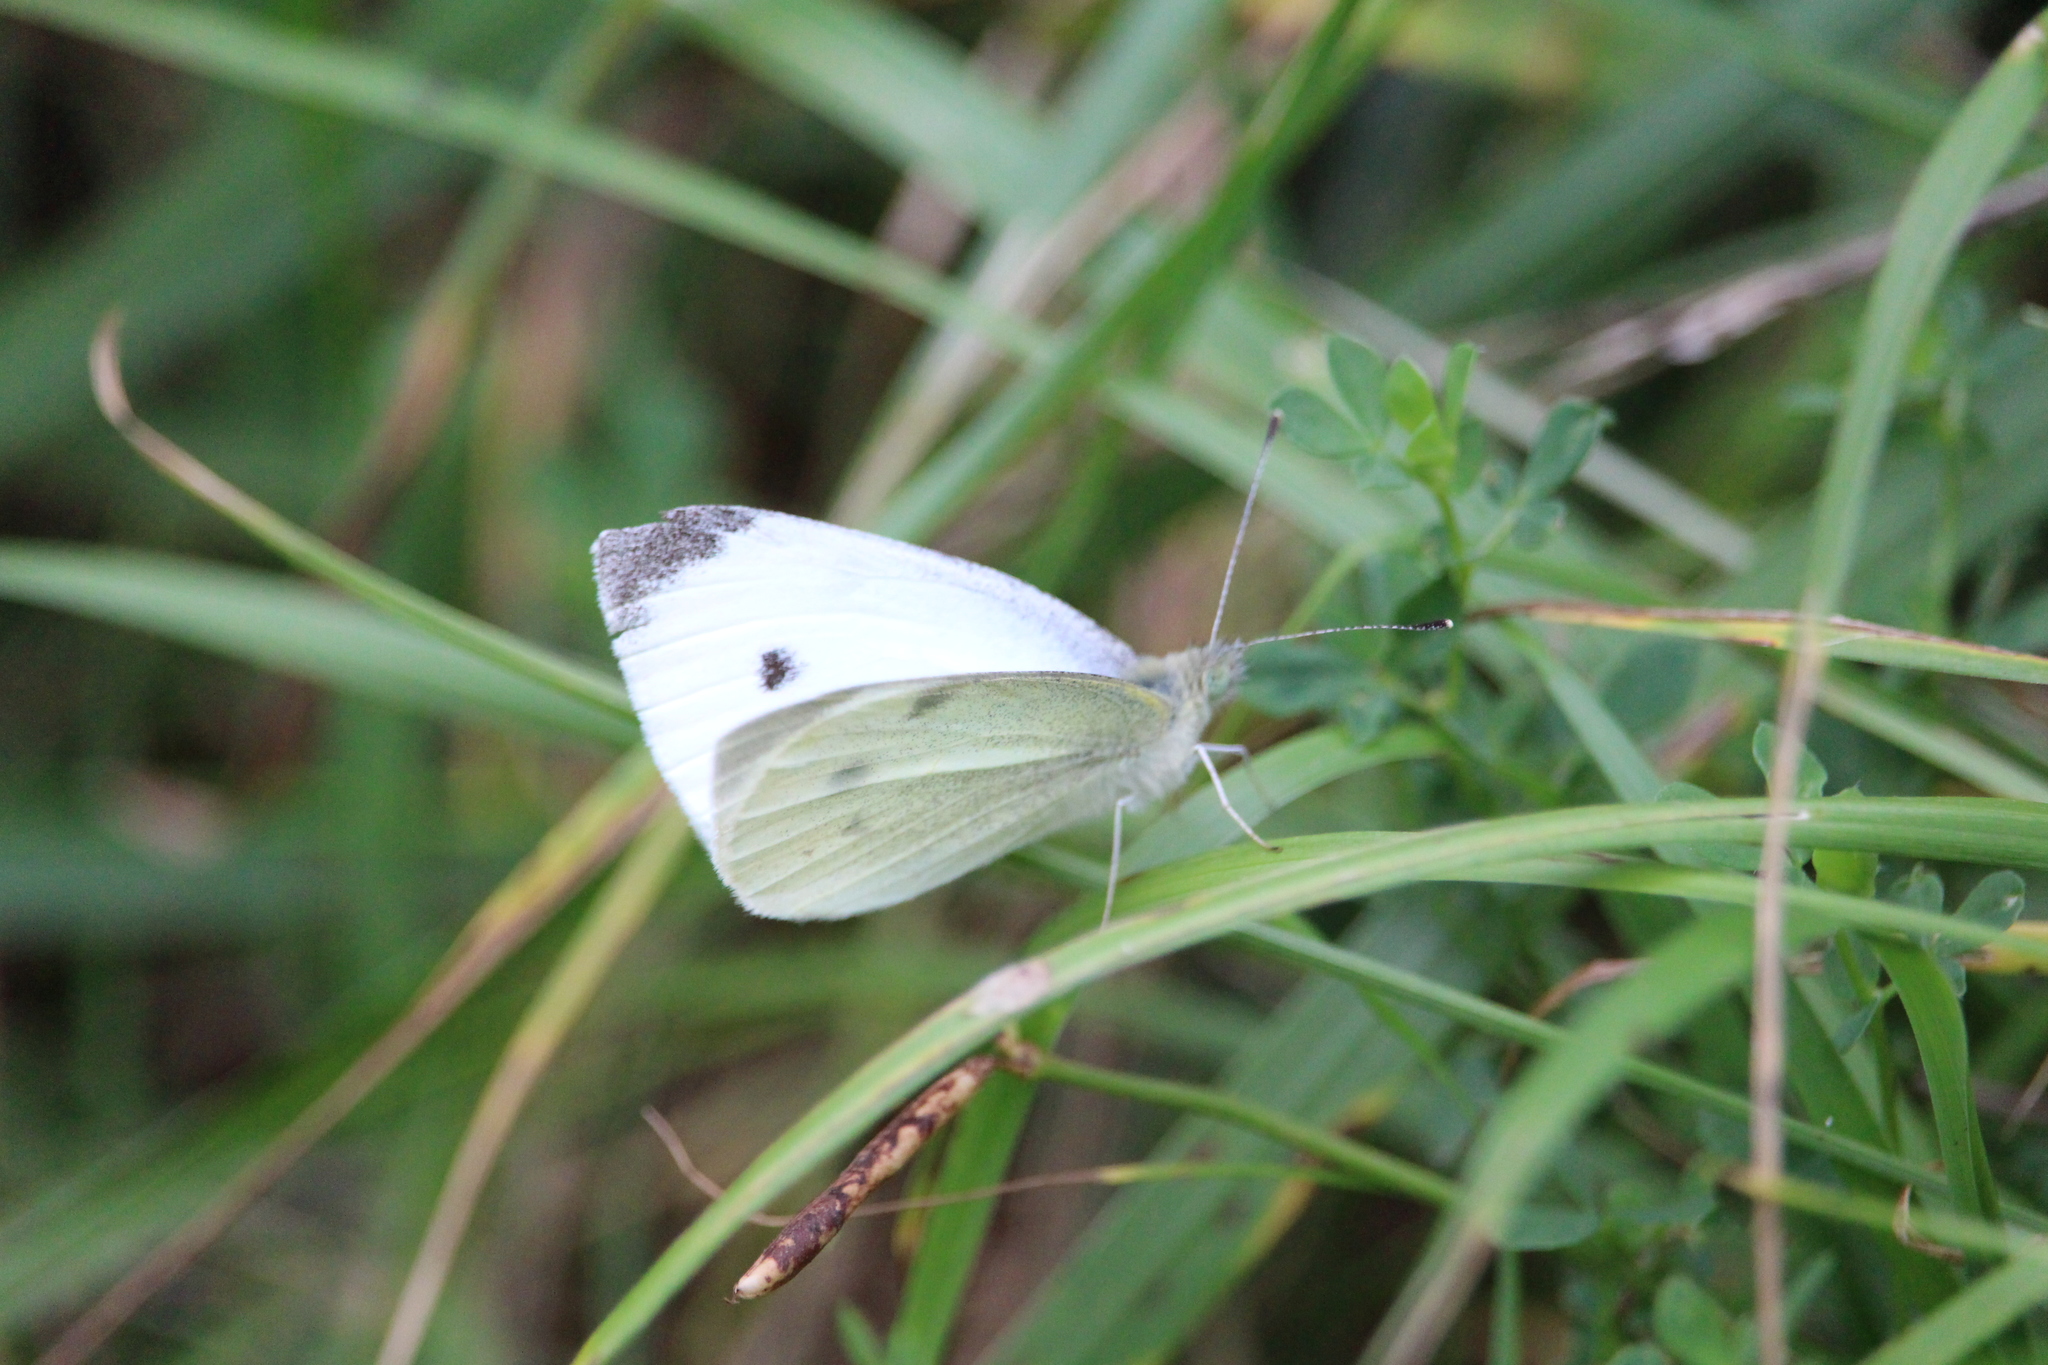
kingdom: Animalia
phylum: Arthropoda
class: Insecta
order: Lepidoptera
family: Pieridae
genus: Pieris
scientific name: Pieris rapae
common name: Small white
